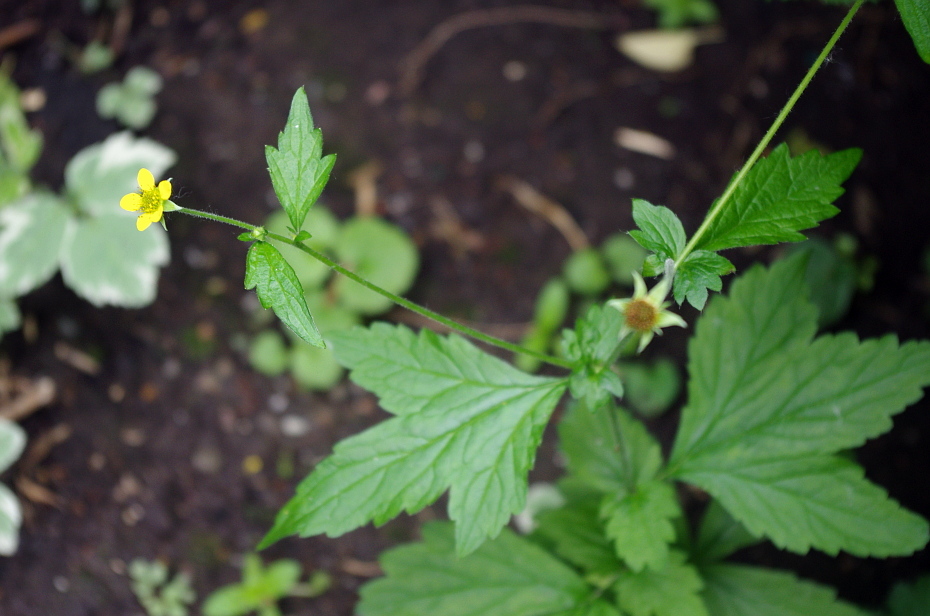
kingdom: Plantae
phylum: Tracheophyta
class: Magnoliopsida
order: Rosales
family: Rosaceae
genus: Geum
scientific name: Geum urbanum
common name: Wood avens
